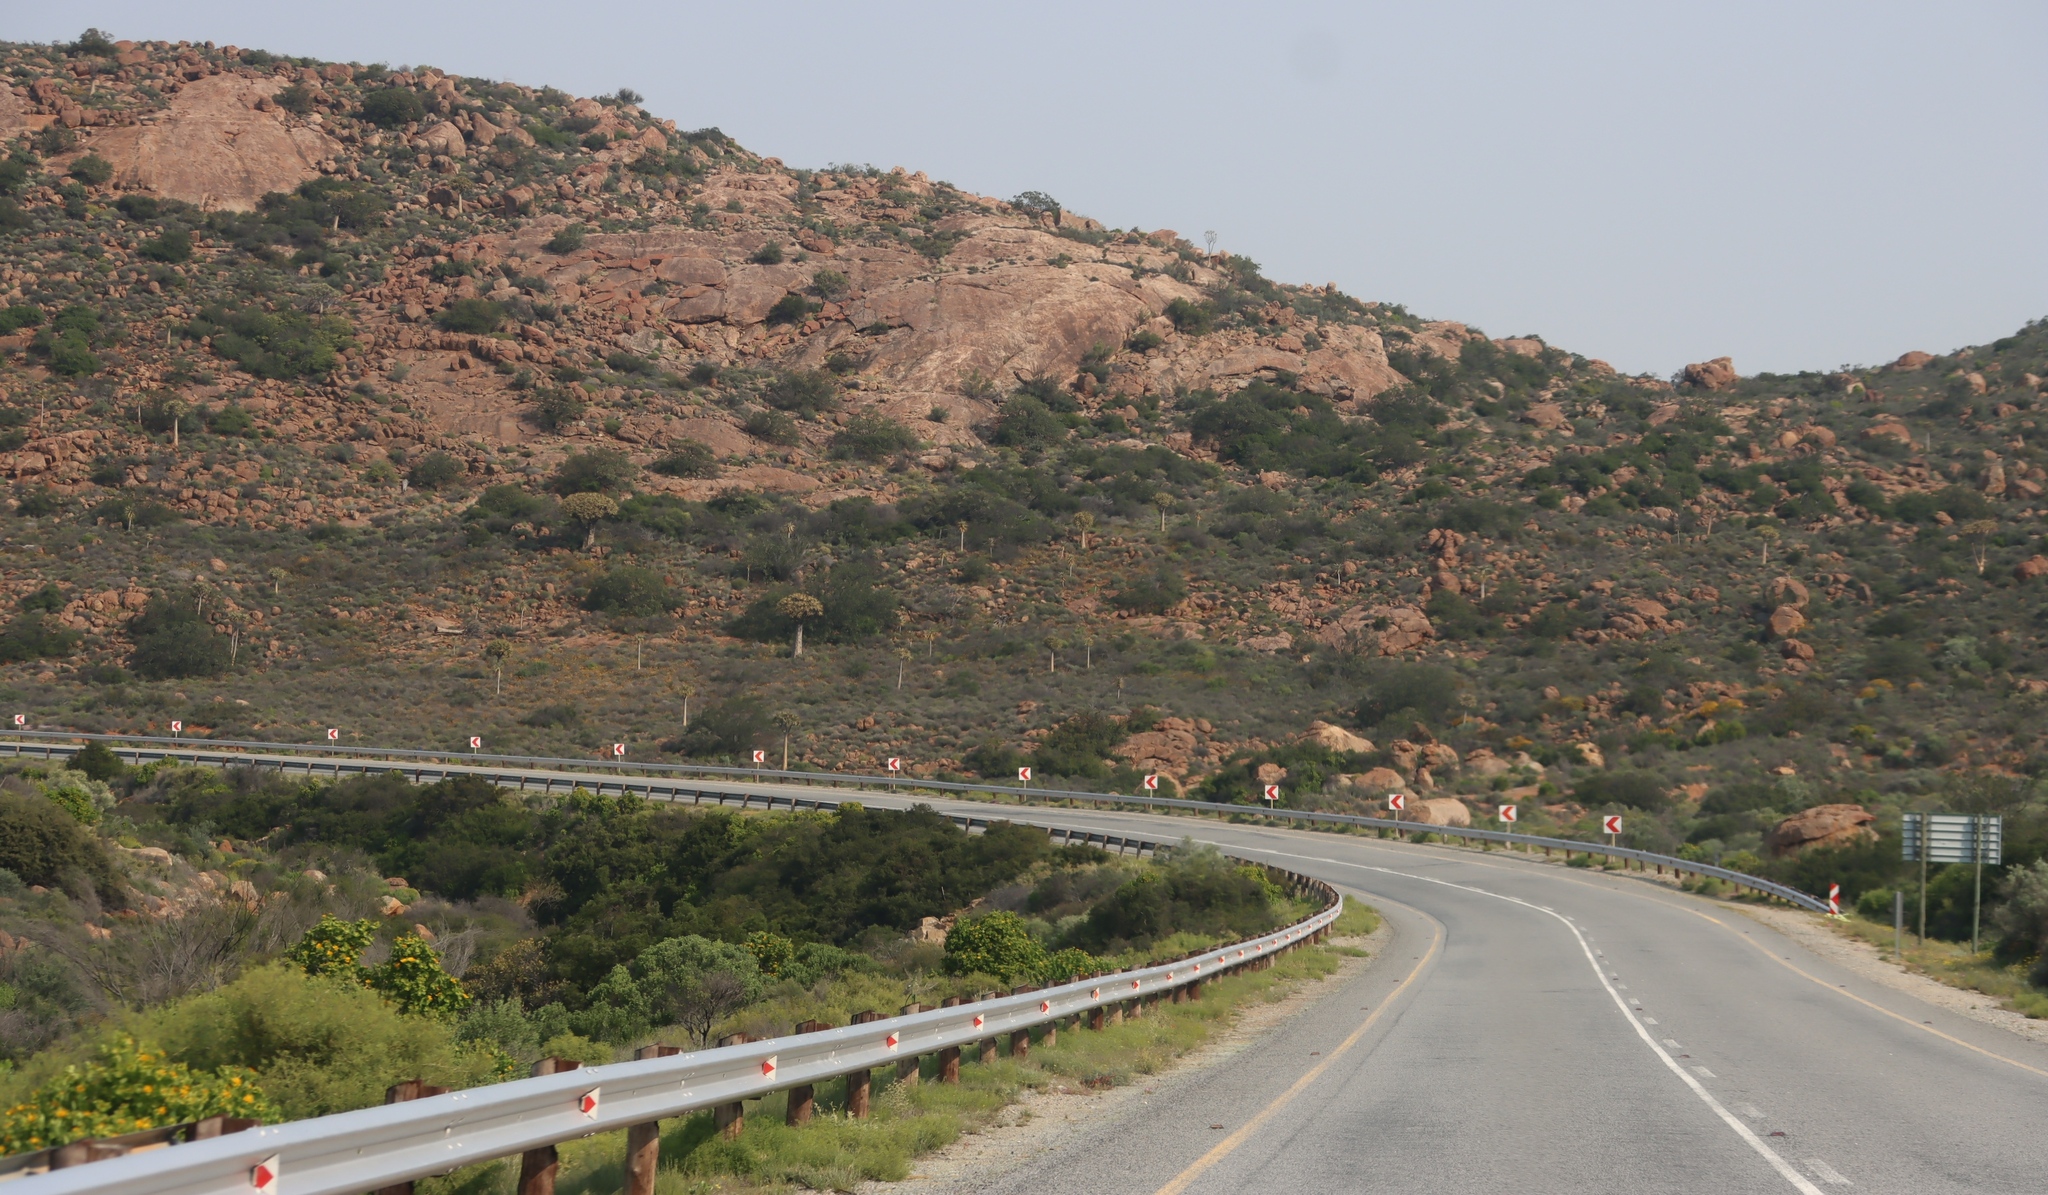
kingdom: Plantae
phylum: Tracheophyta
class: Liliopsida
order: Asparagales
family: Asphodelaceae
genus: Aloidendron
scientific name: Aloidendron dichotomum
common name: Quiver tree
